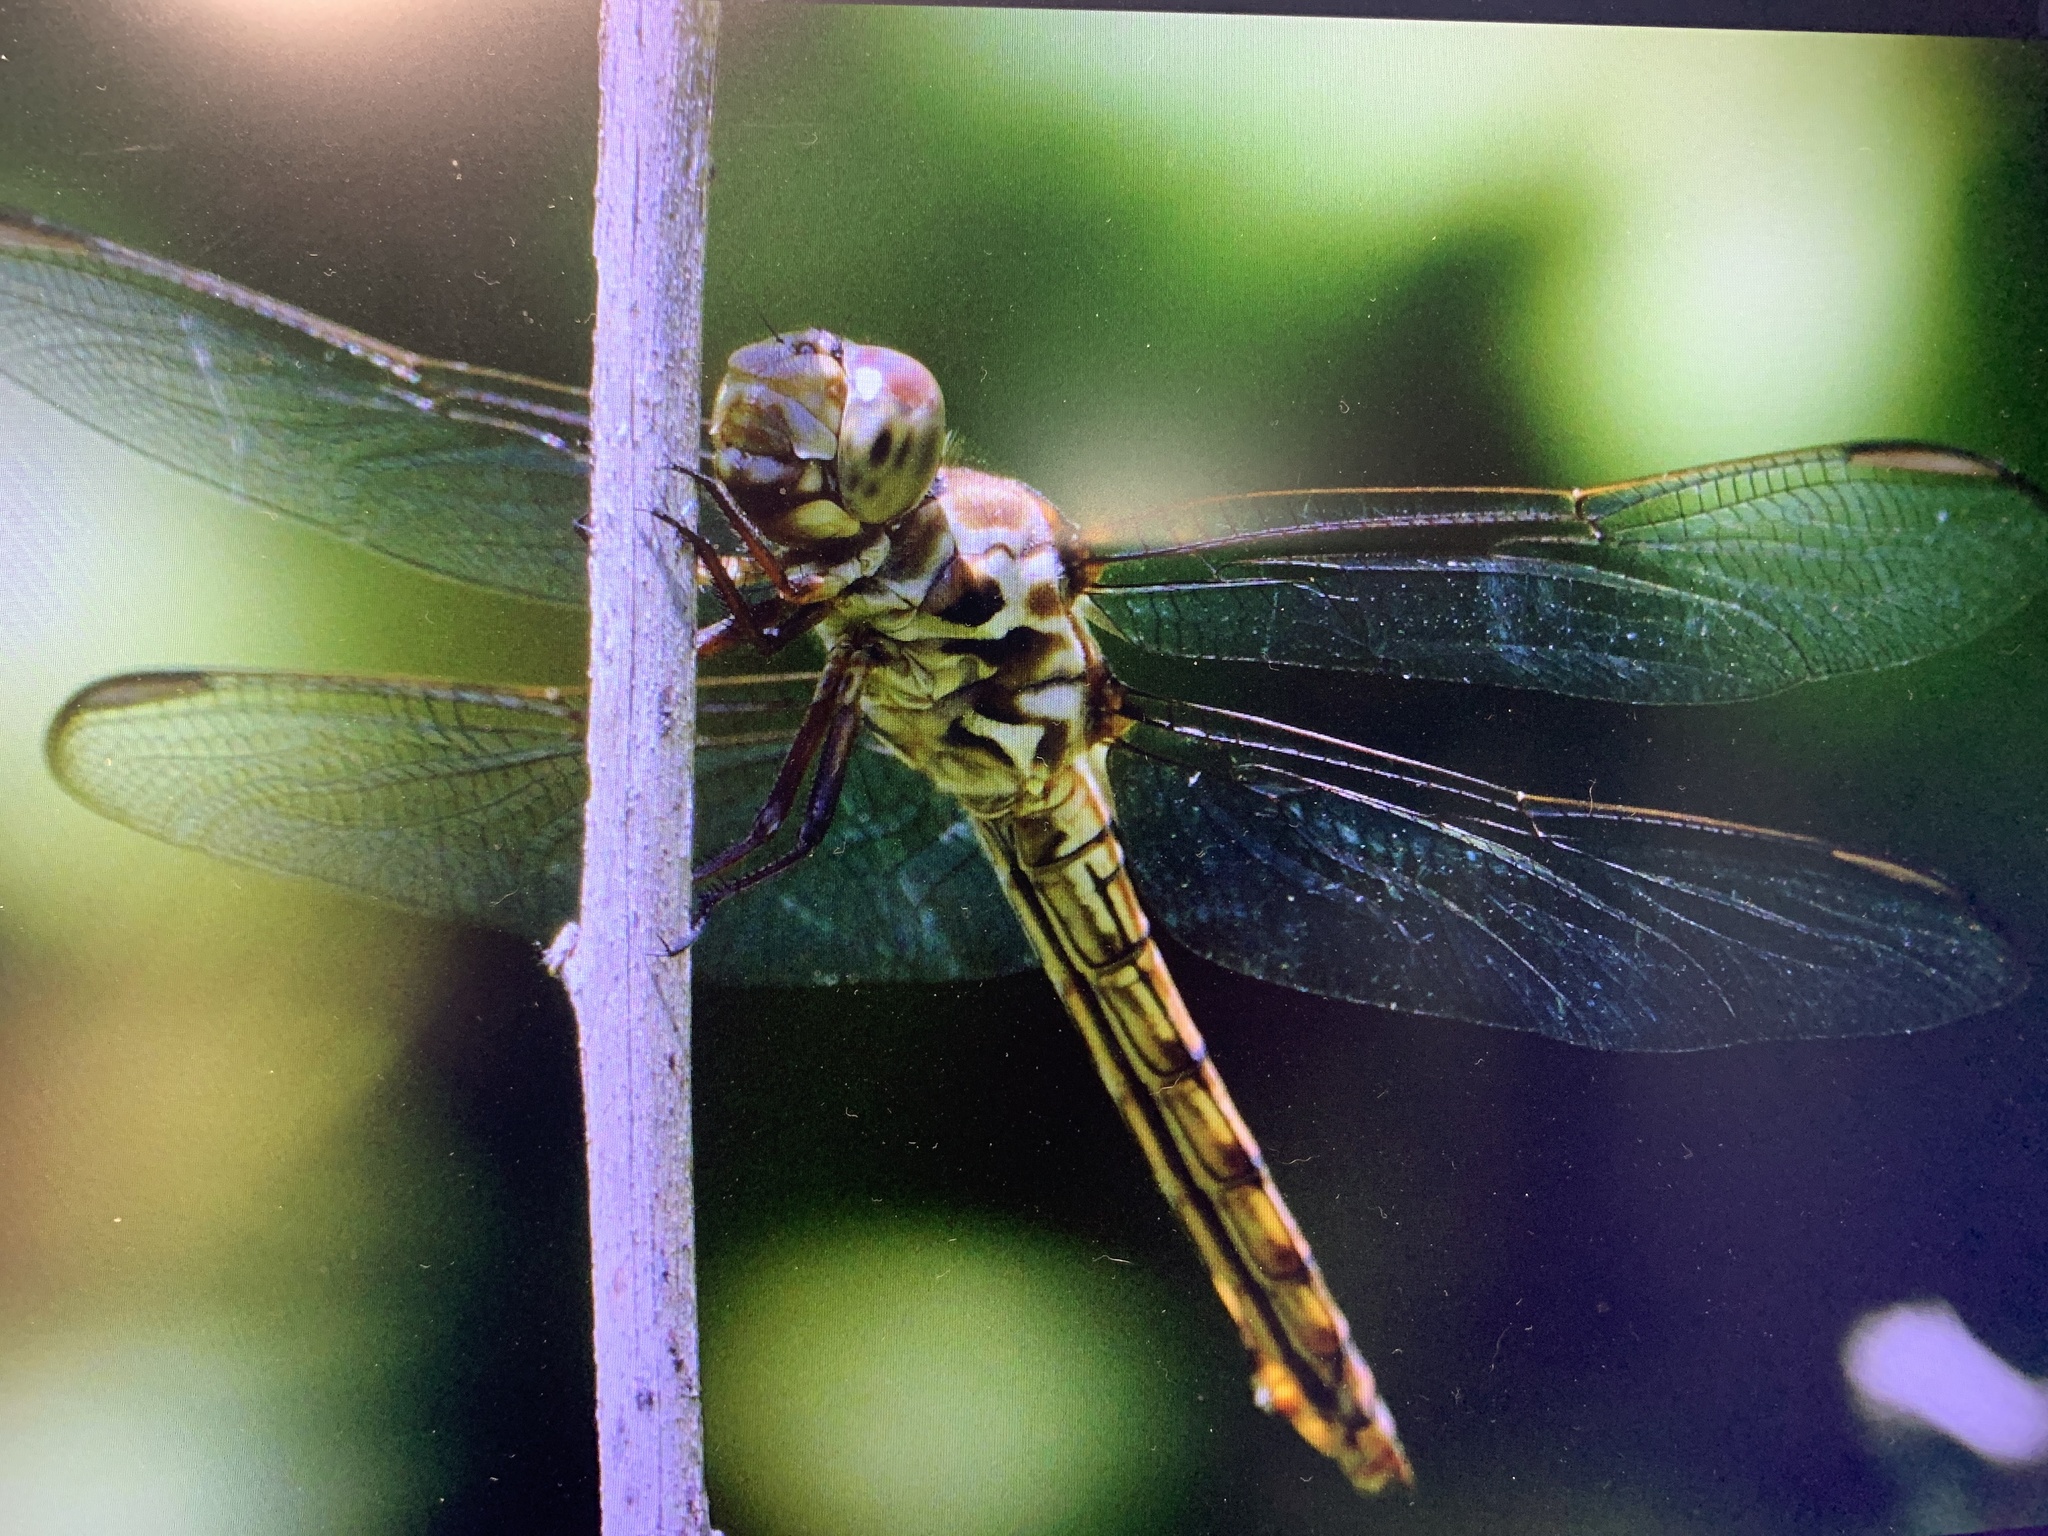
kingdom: Animalia
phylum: Arthropoda
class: Insecta
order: Odonata
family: Libellulidae
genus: Orthemis
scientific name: Orthemis ferruginea
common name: Roseate skimmer
